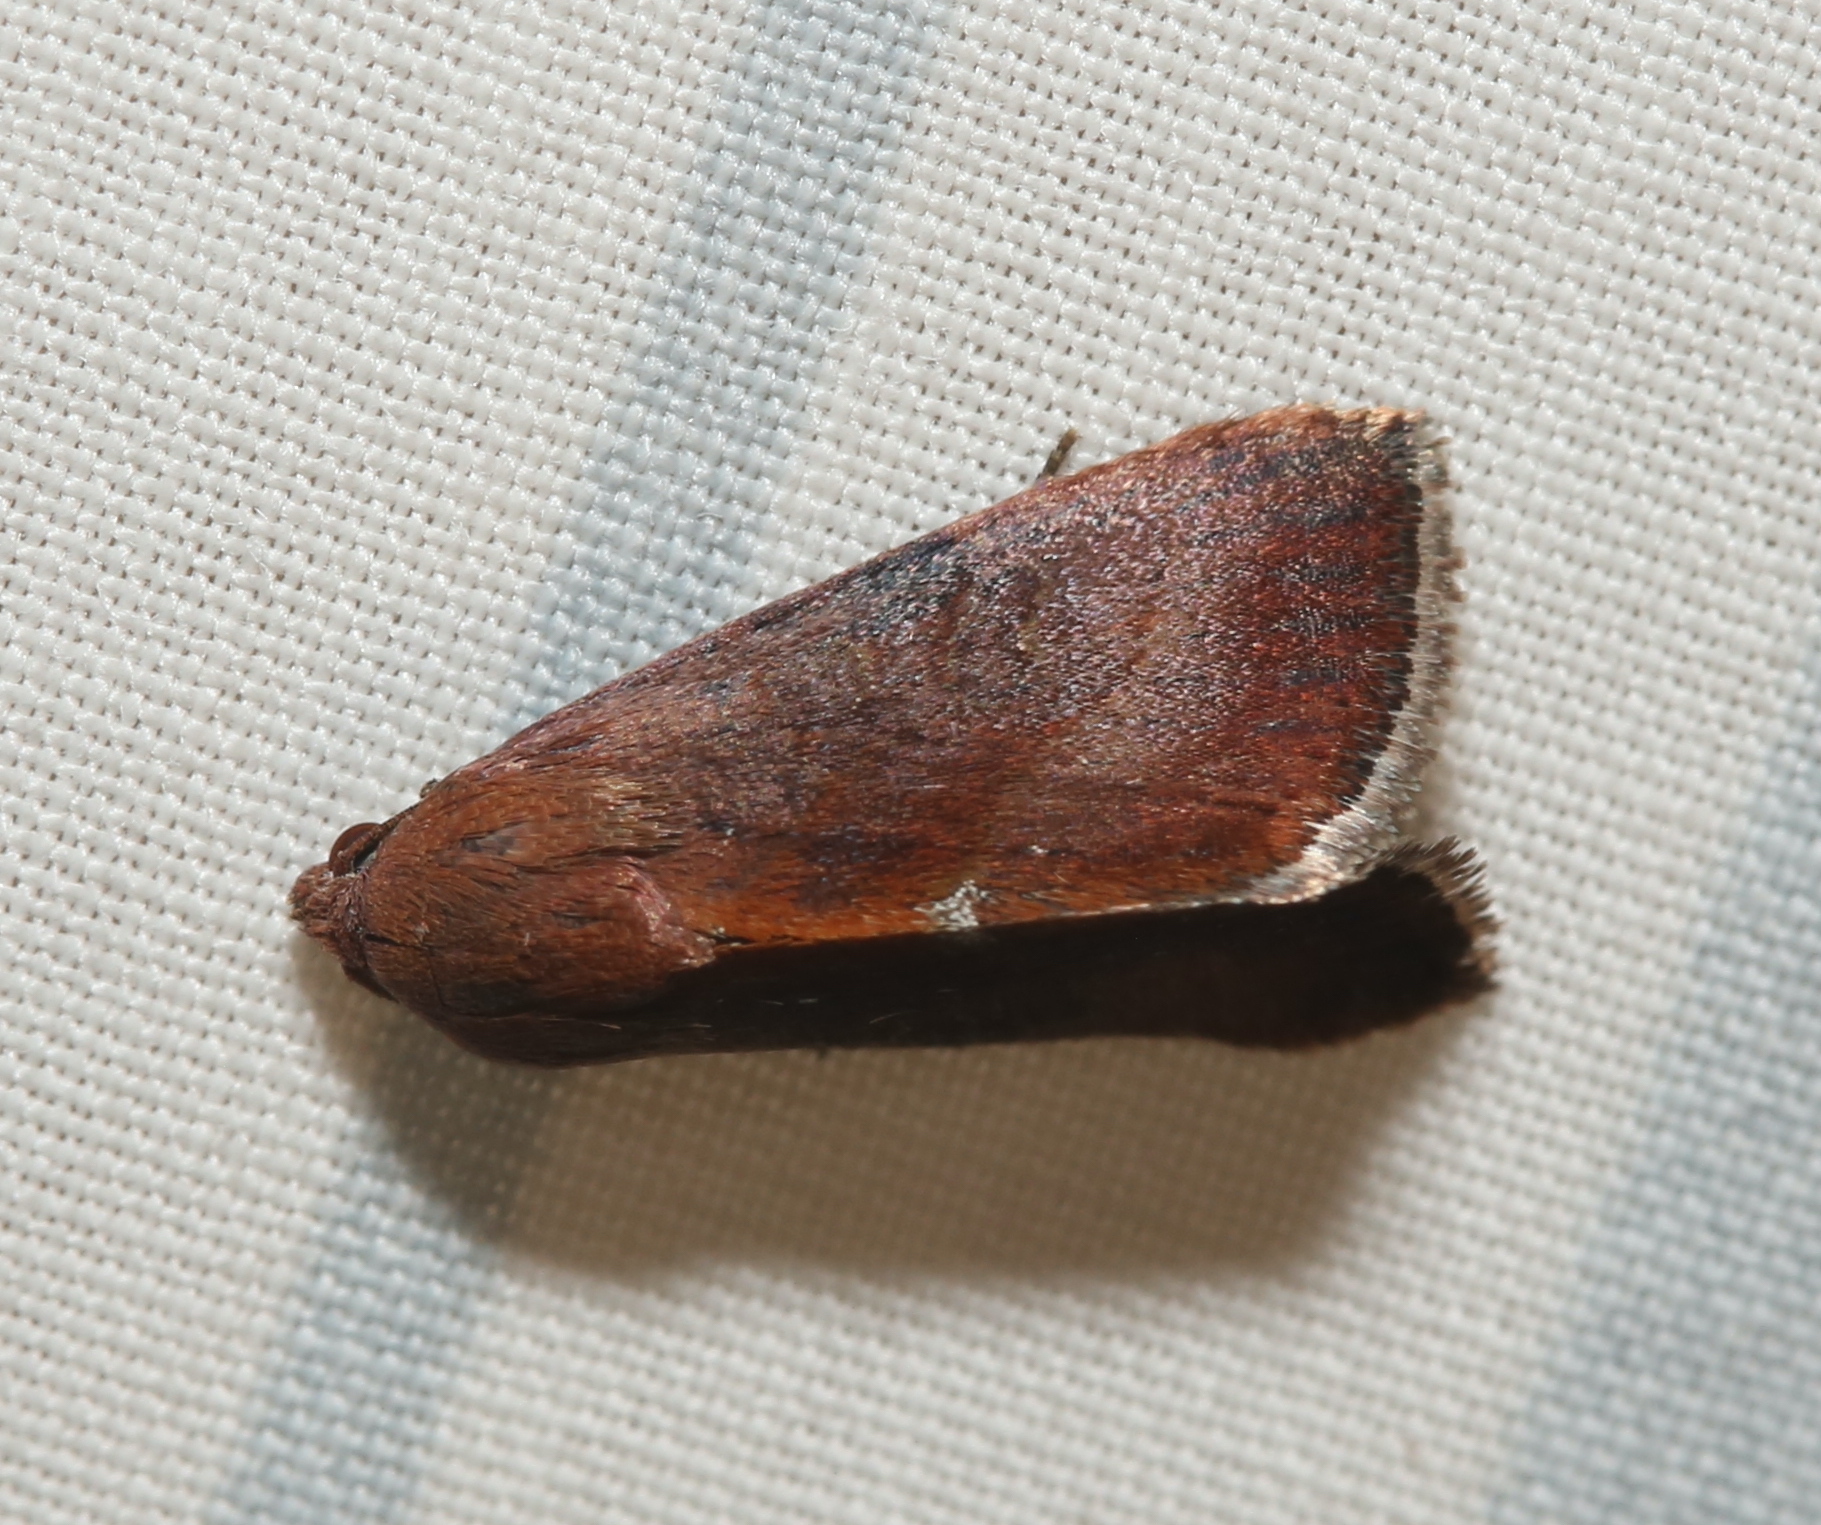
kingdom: Animalia
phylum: Arthropoda
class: Insecta
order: Lepidoptera
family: Noctuidae
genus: Galgula
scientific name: Galgula partita
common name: Wedgeling
